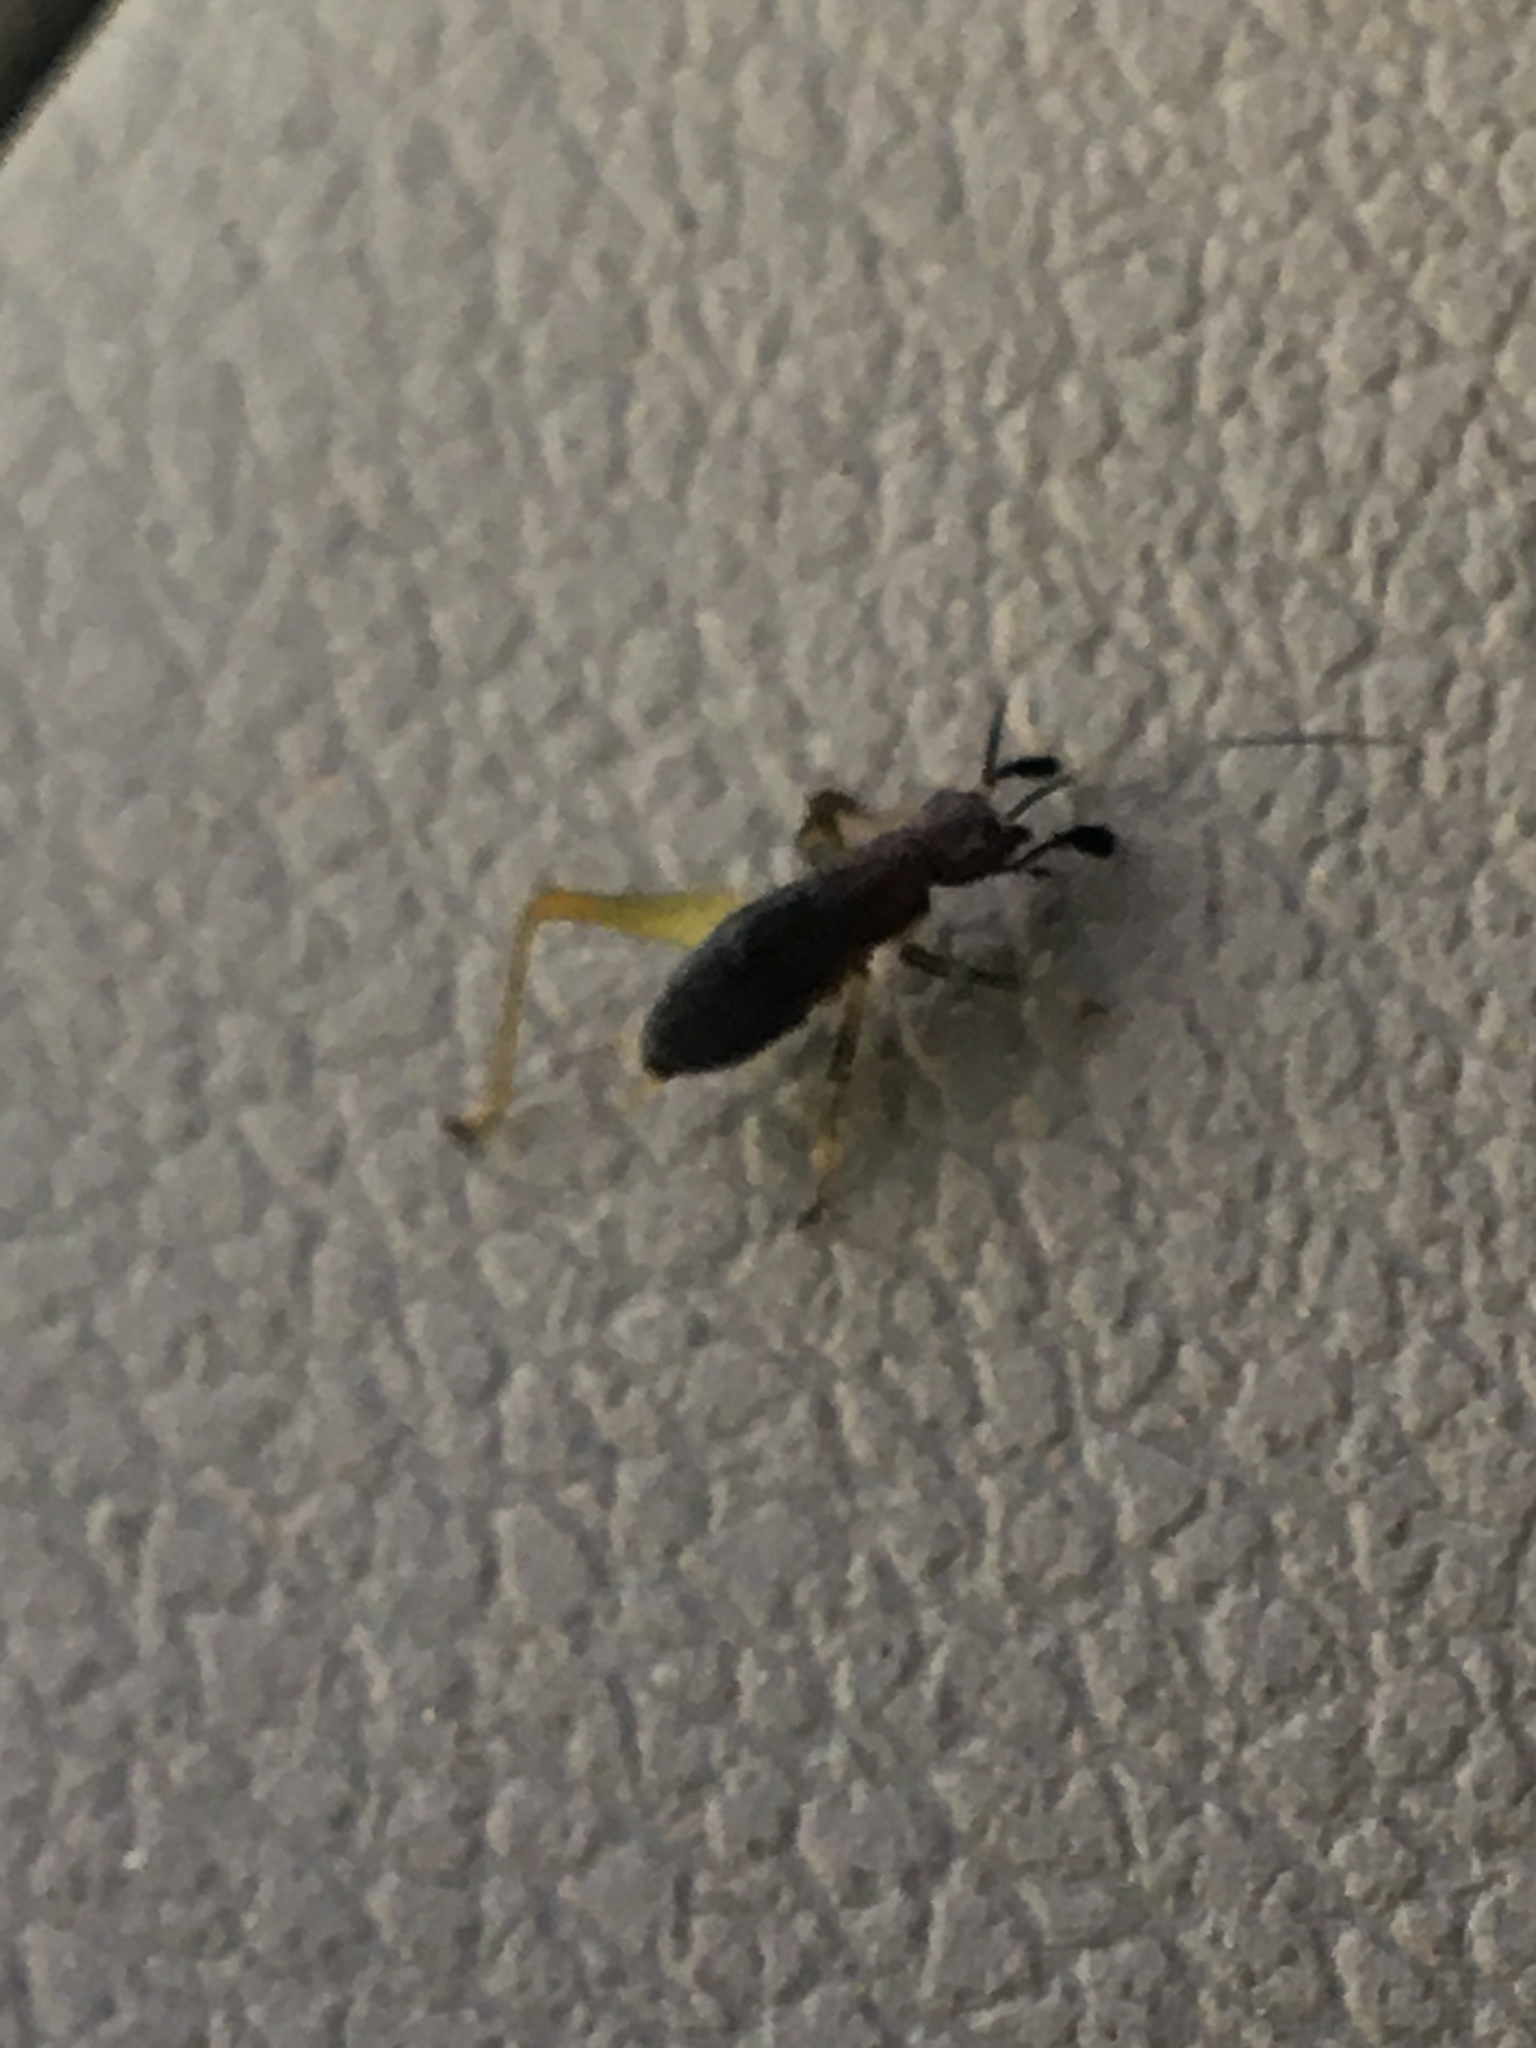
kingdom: Animalia
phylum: Arthropoda
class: Insecta
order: Orthoptera
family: Trigonidiidae
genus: Phyllopalpus
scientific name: Phyllopalpus pulchellus
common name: Handsome trig
